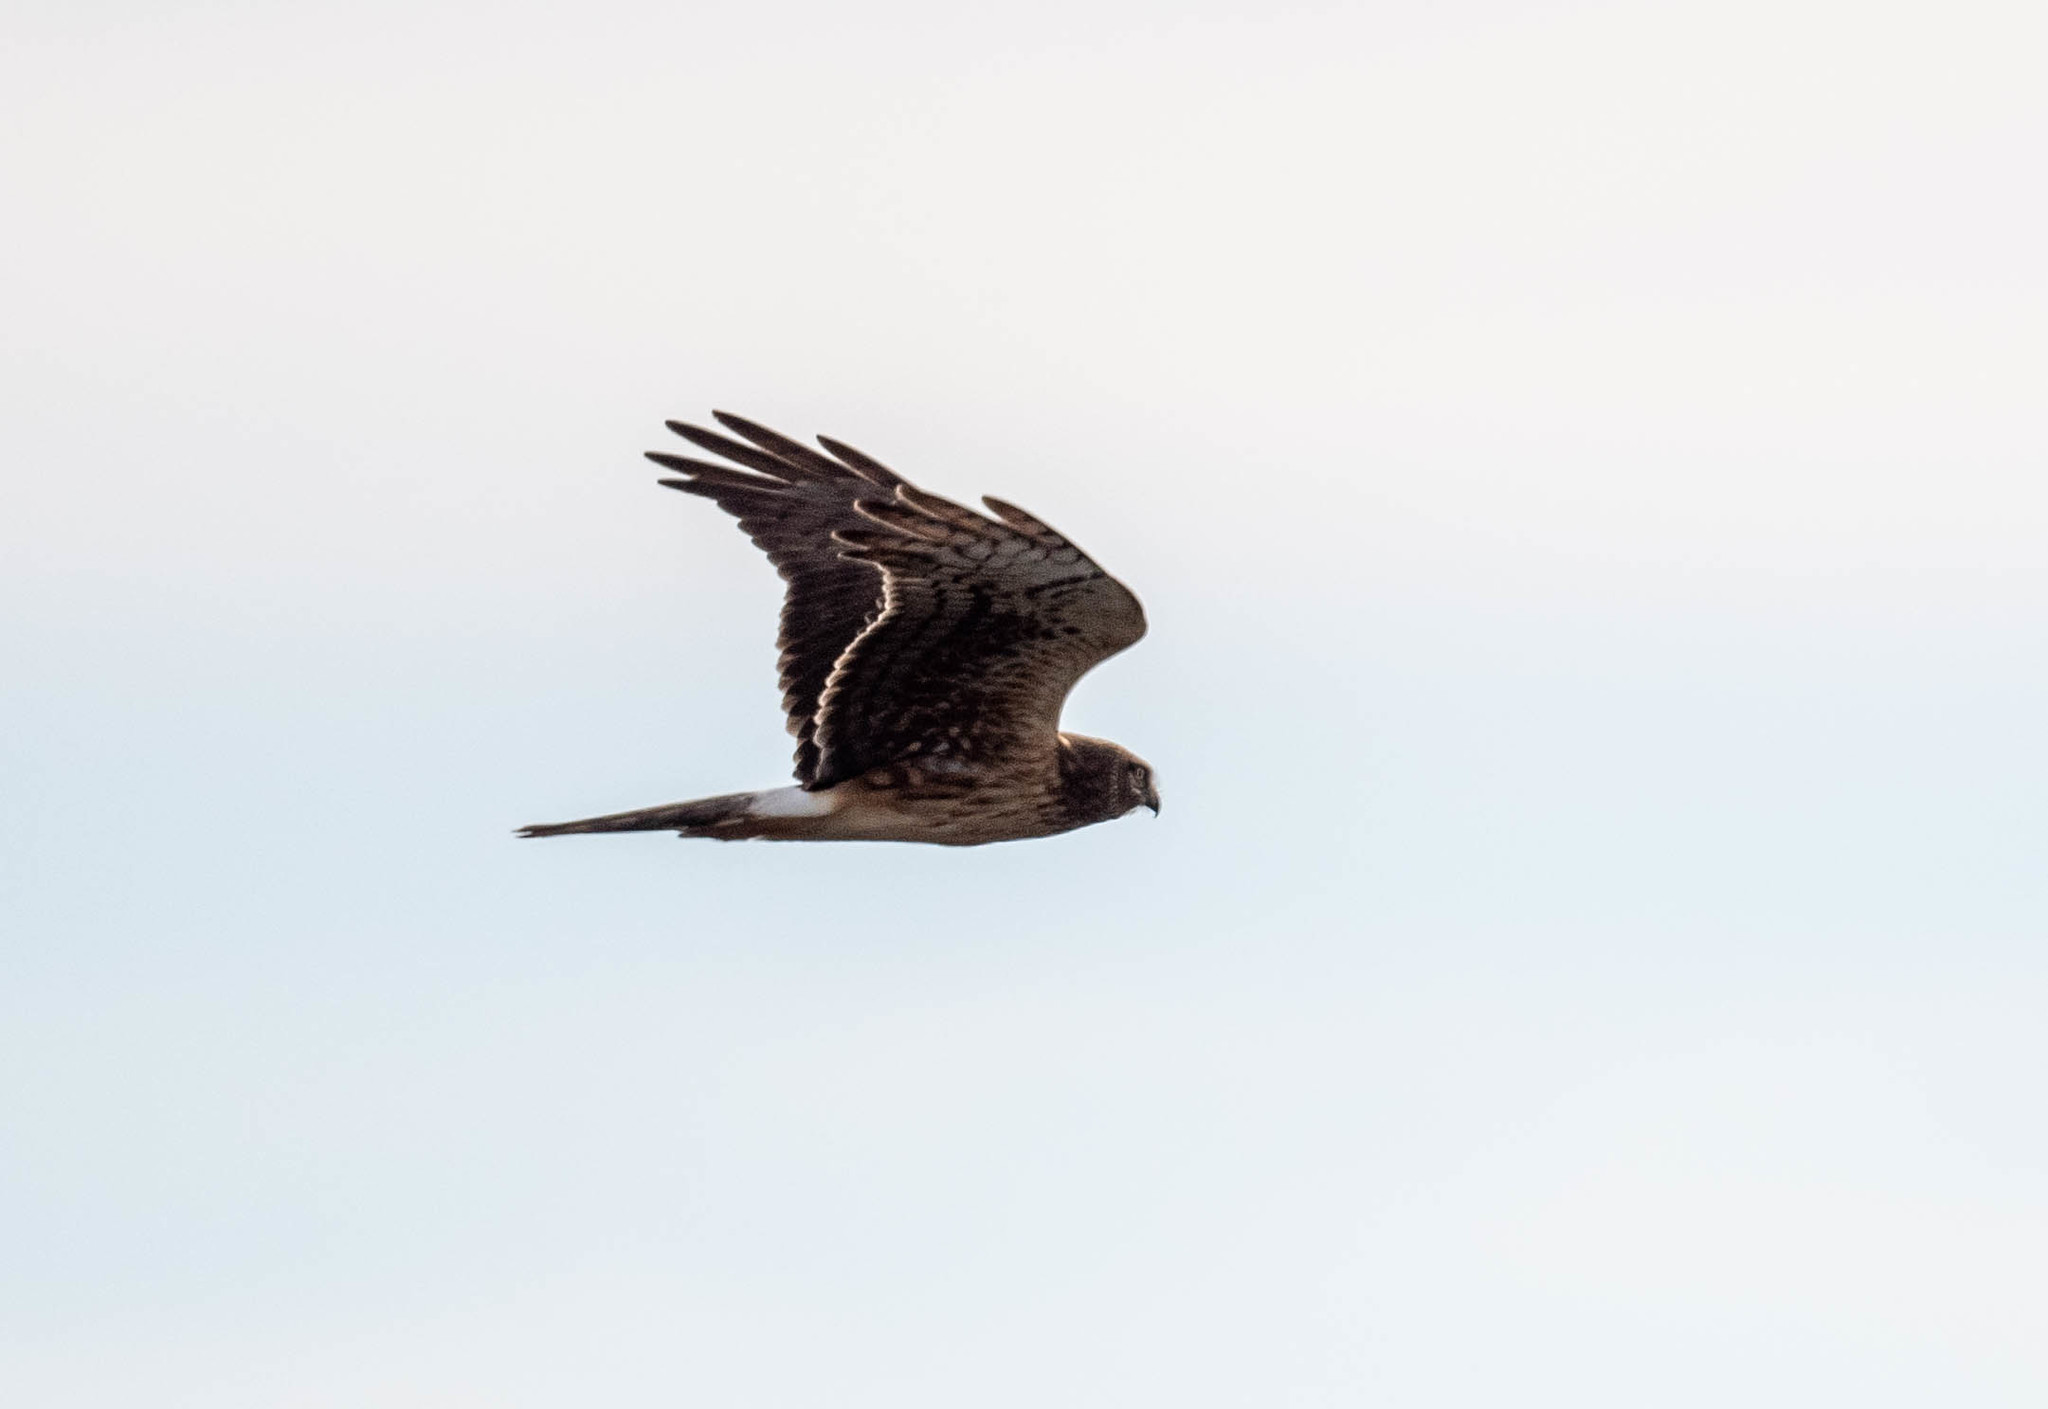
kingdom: Animalia
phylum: Chordata
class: Aves
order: Accipitriformes
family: Accipitridae
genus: Circus
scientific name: Circus cyaneus
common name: Hen harrier
